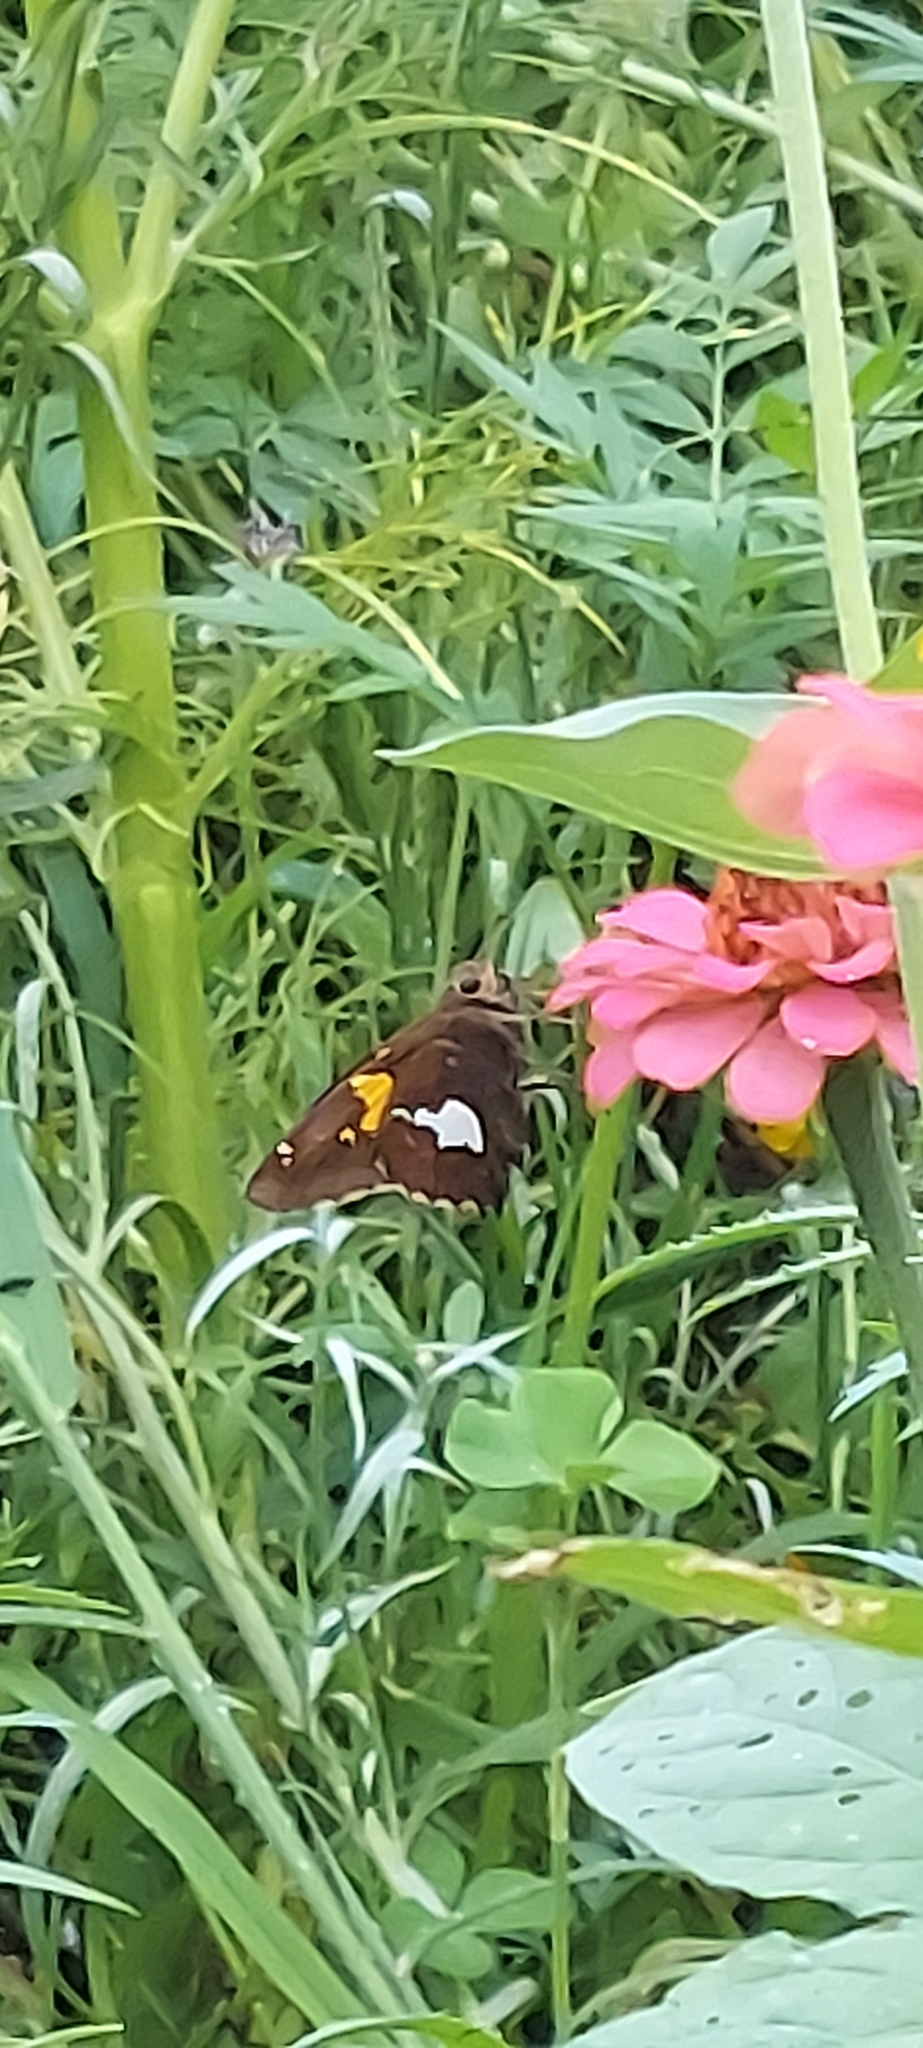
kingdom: Animalia
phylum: Arthropoda
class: Insecta
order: Lepidoptera
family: Hesperiidae
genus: Epargyreus
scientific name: Epargyreus clarus
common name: Silver-spotted skipper
